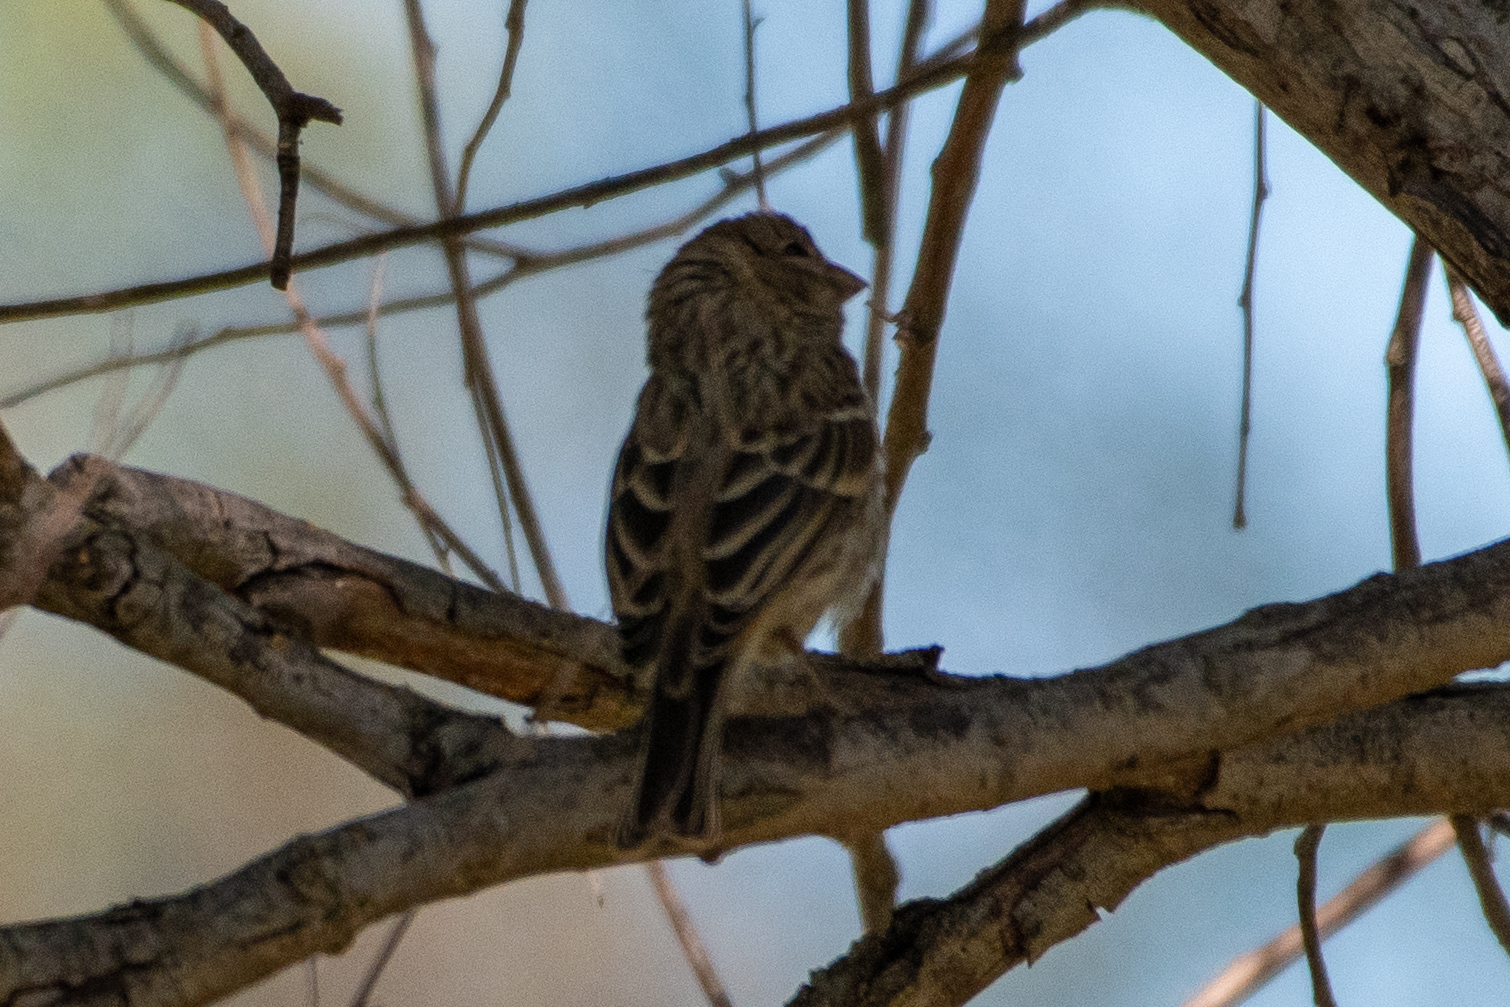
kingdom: Animalia
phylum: Chordata
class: Aves
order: Passeriformes
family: Fringillidae
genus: Haemorhous
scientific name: Haemorhous mexicanus
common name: House finch
